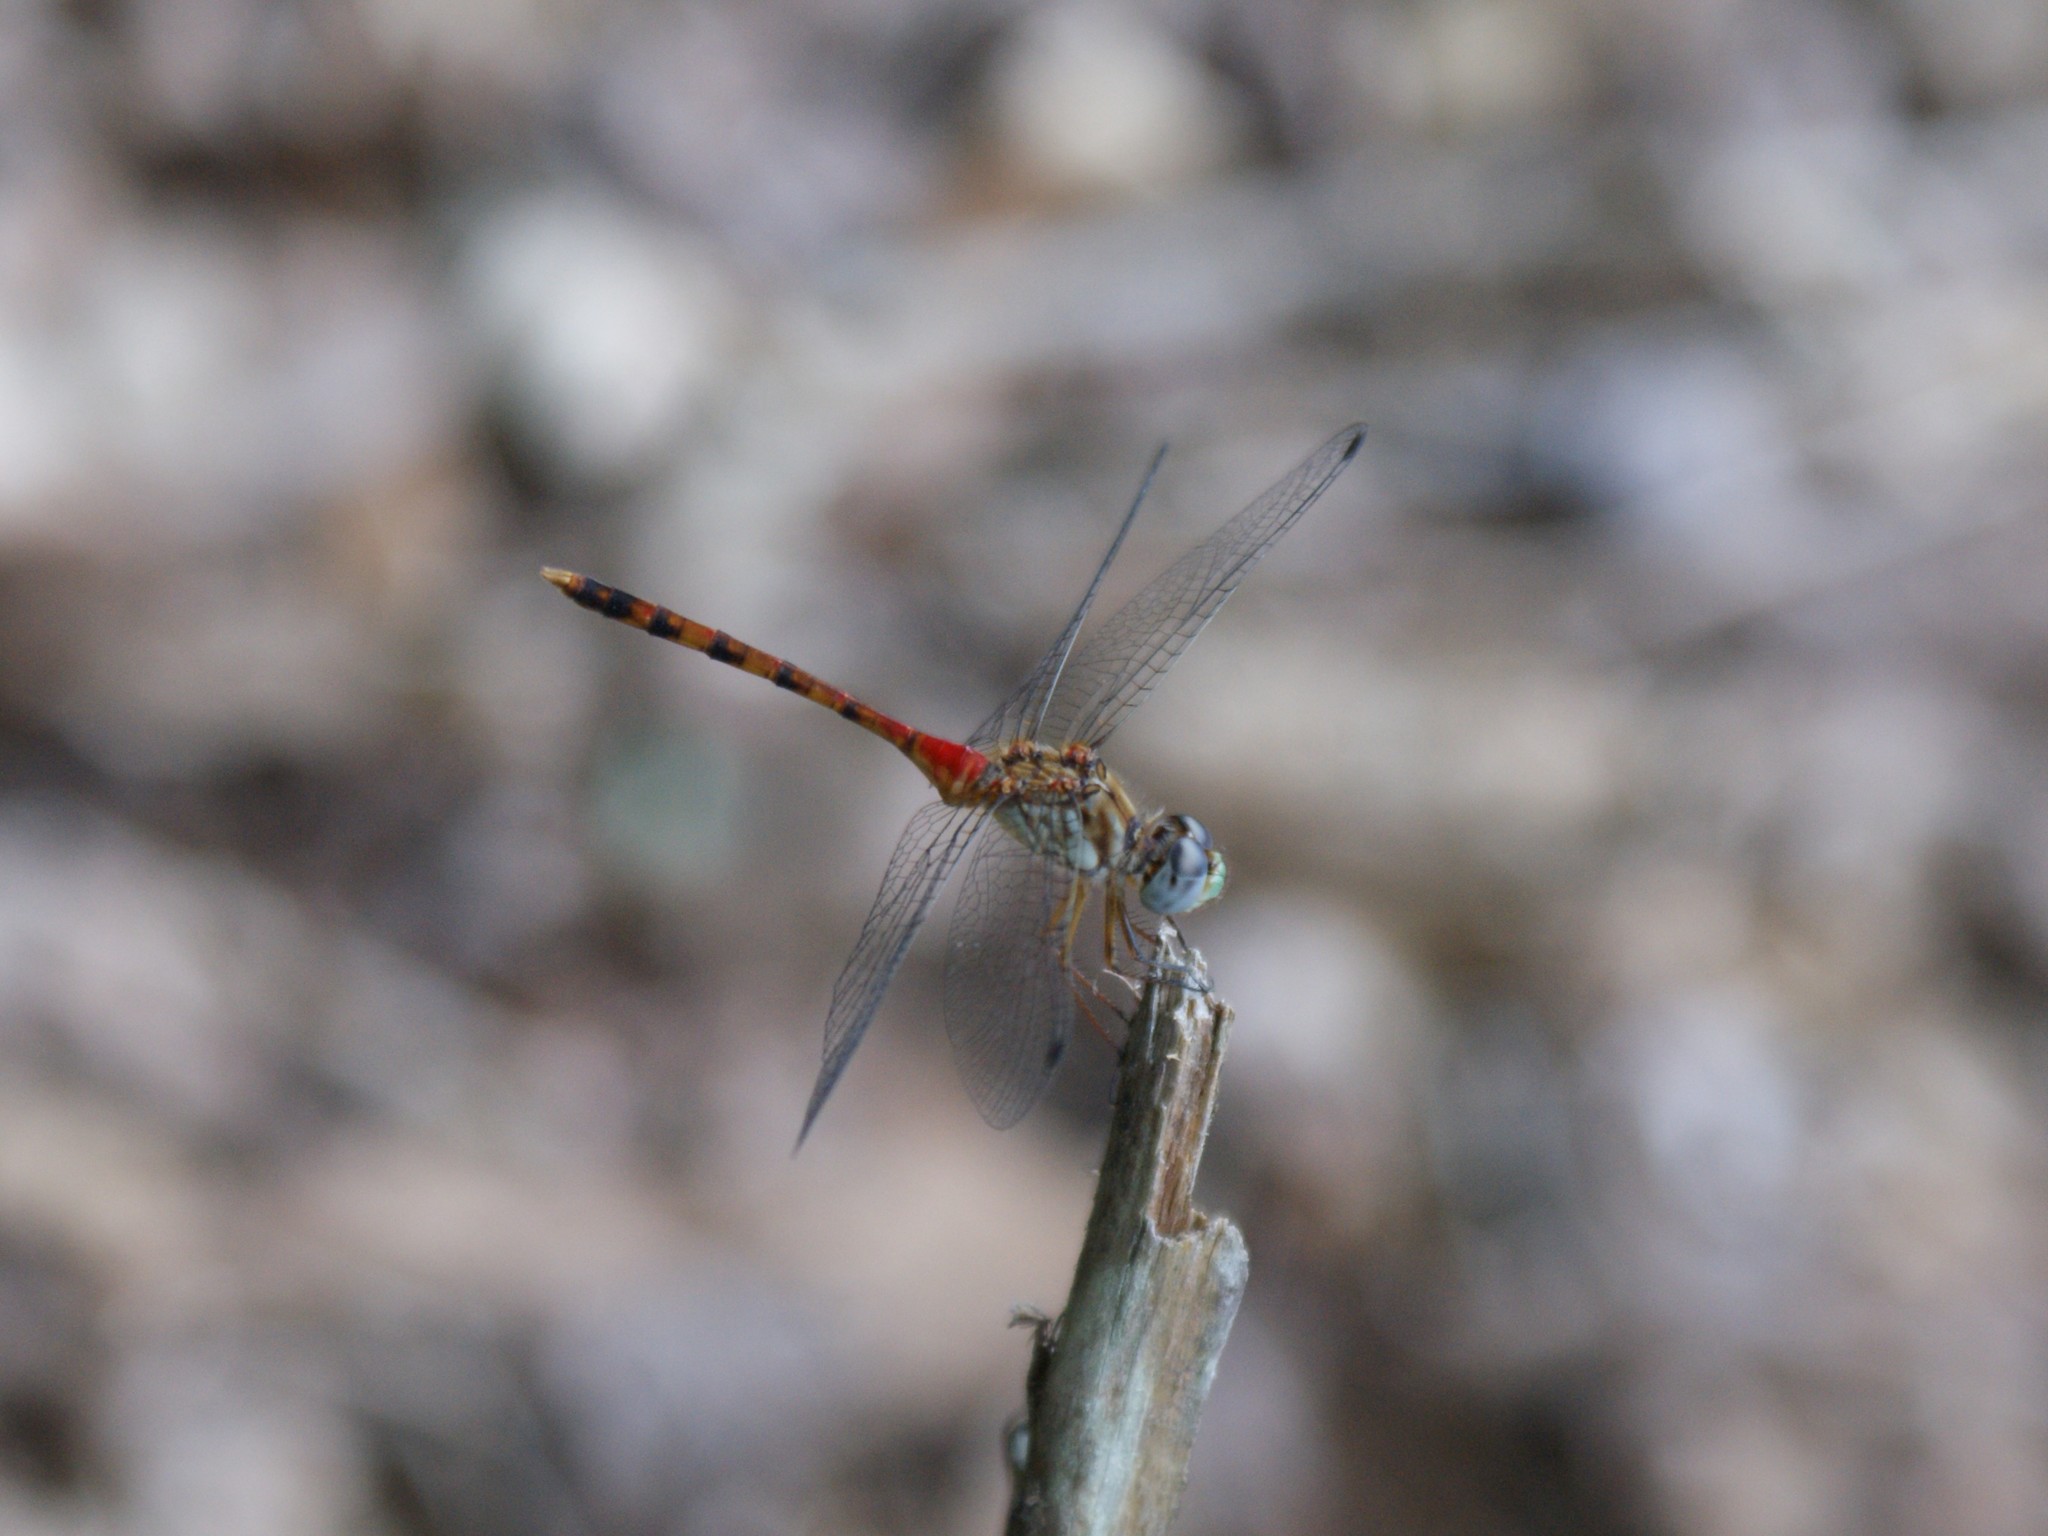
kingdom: Animalia
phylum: Arthropoda
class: Insecta
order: Odonata
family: Libellulidae
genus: Sympetrum
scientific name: Sympetrum ambiguum
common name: Blue-faced meadowhawk
